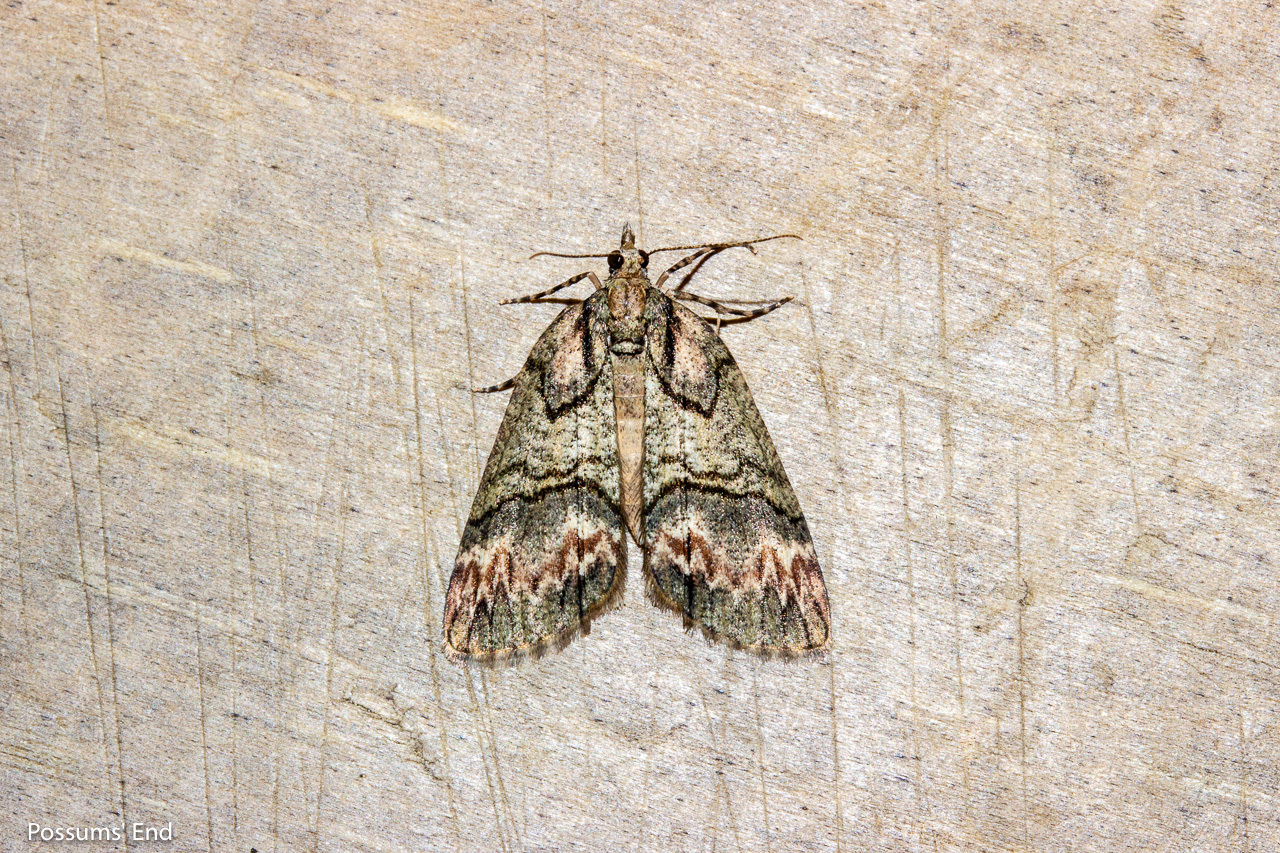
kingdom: Animalia
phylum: Arthropoda
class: Insecta
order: Lepidoptera
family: Geometridae
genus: Chalastra
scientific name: Chalastra ochrea
